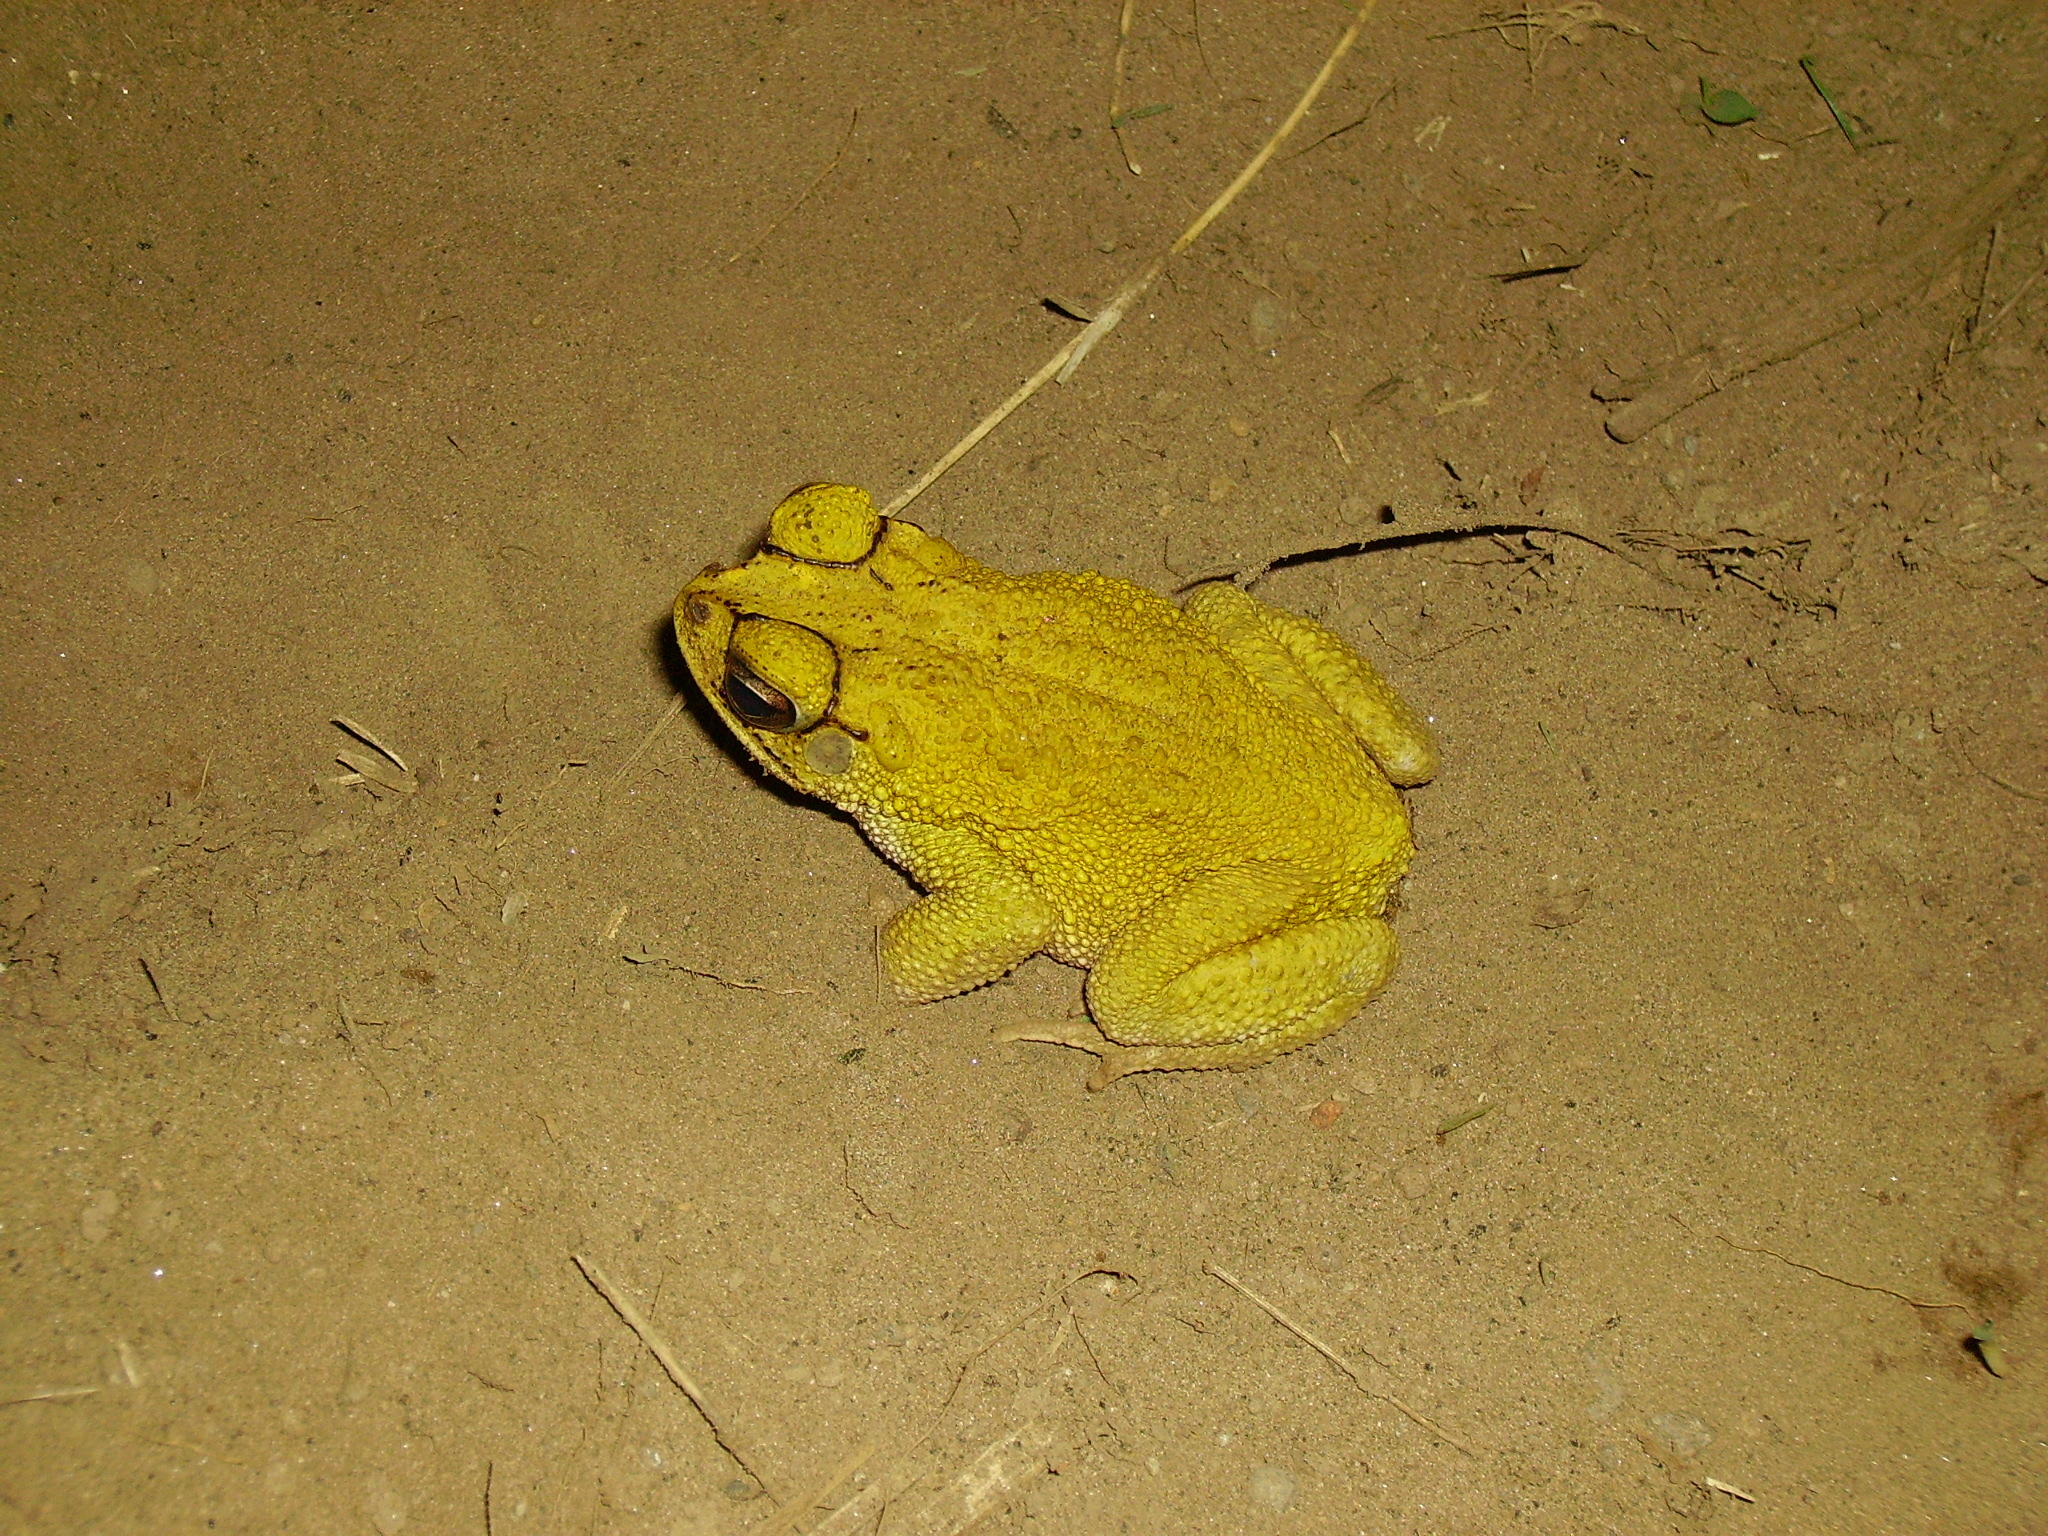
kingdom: Animalia
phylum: Chordata
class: Amphibia
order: Anura
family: Bufonidae
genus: Incilius
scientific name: Incilius luetkenii
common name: Yellow toad
